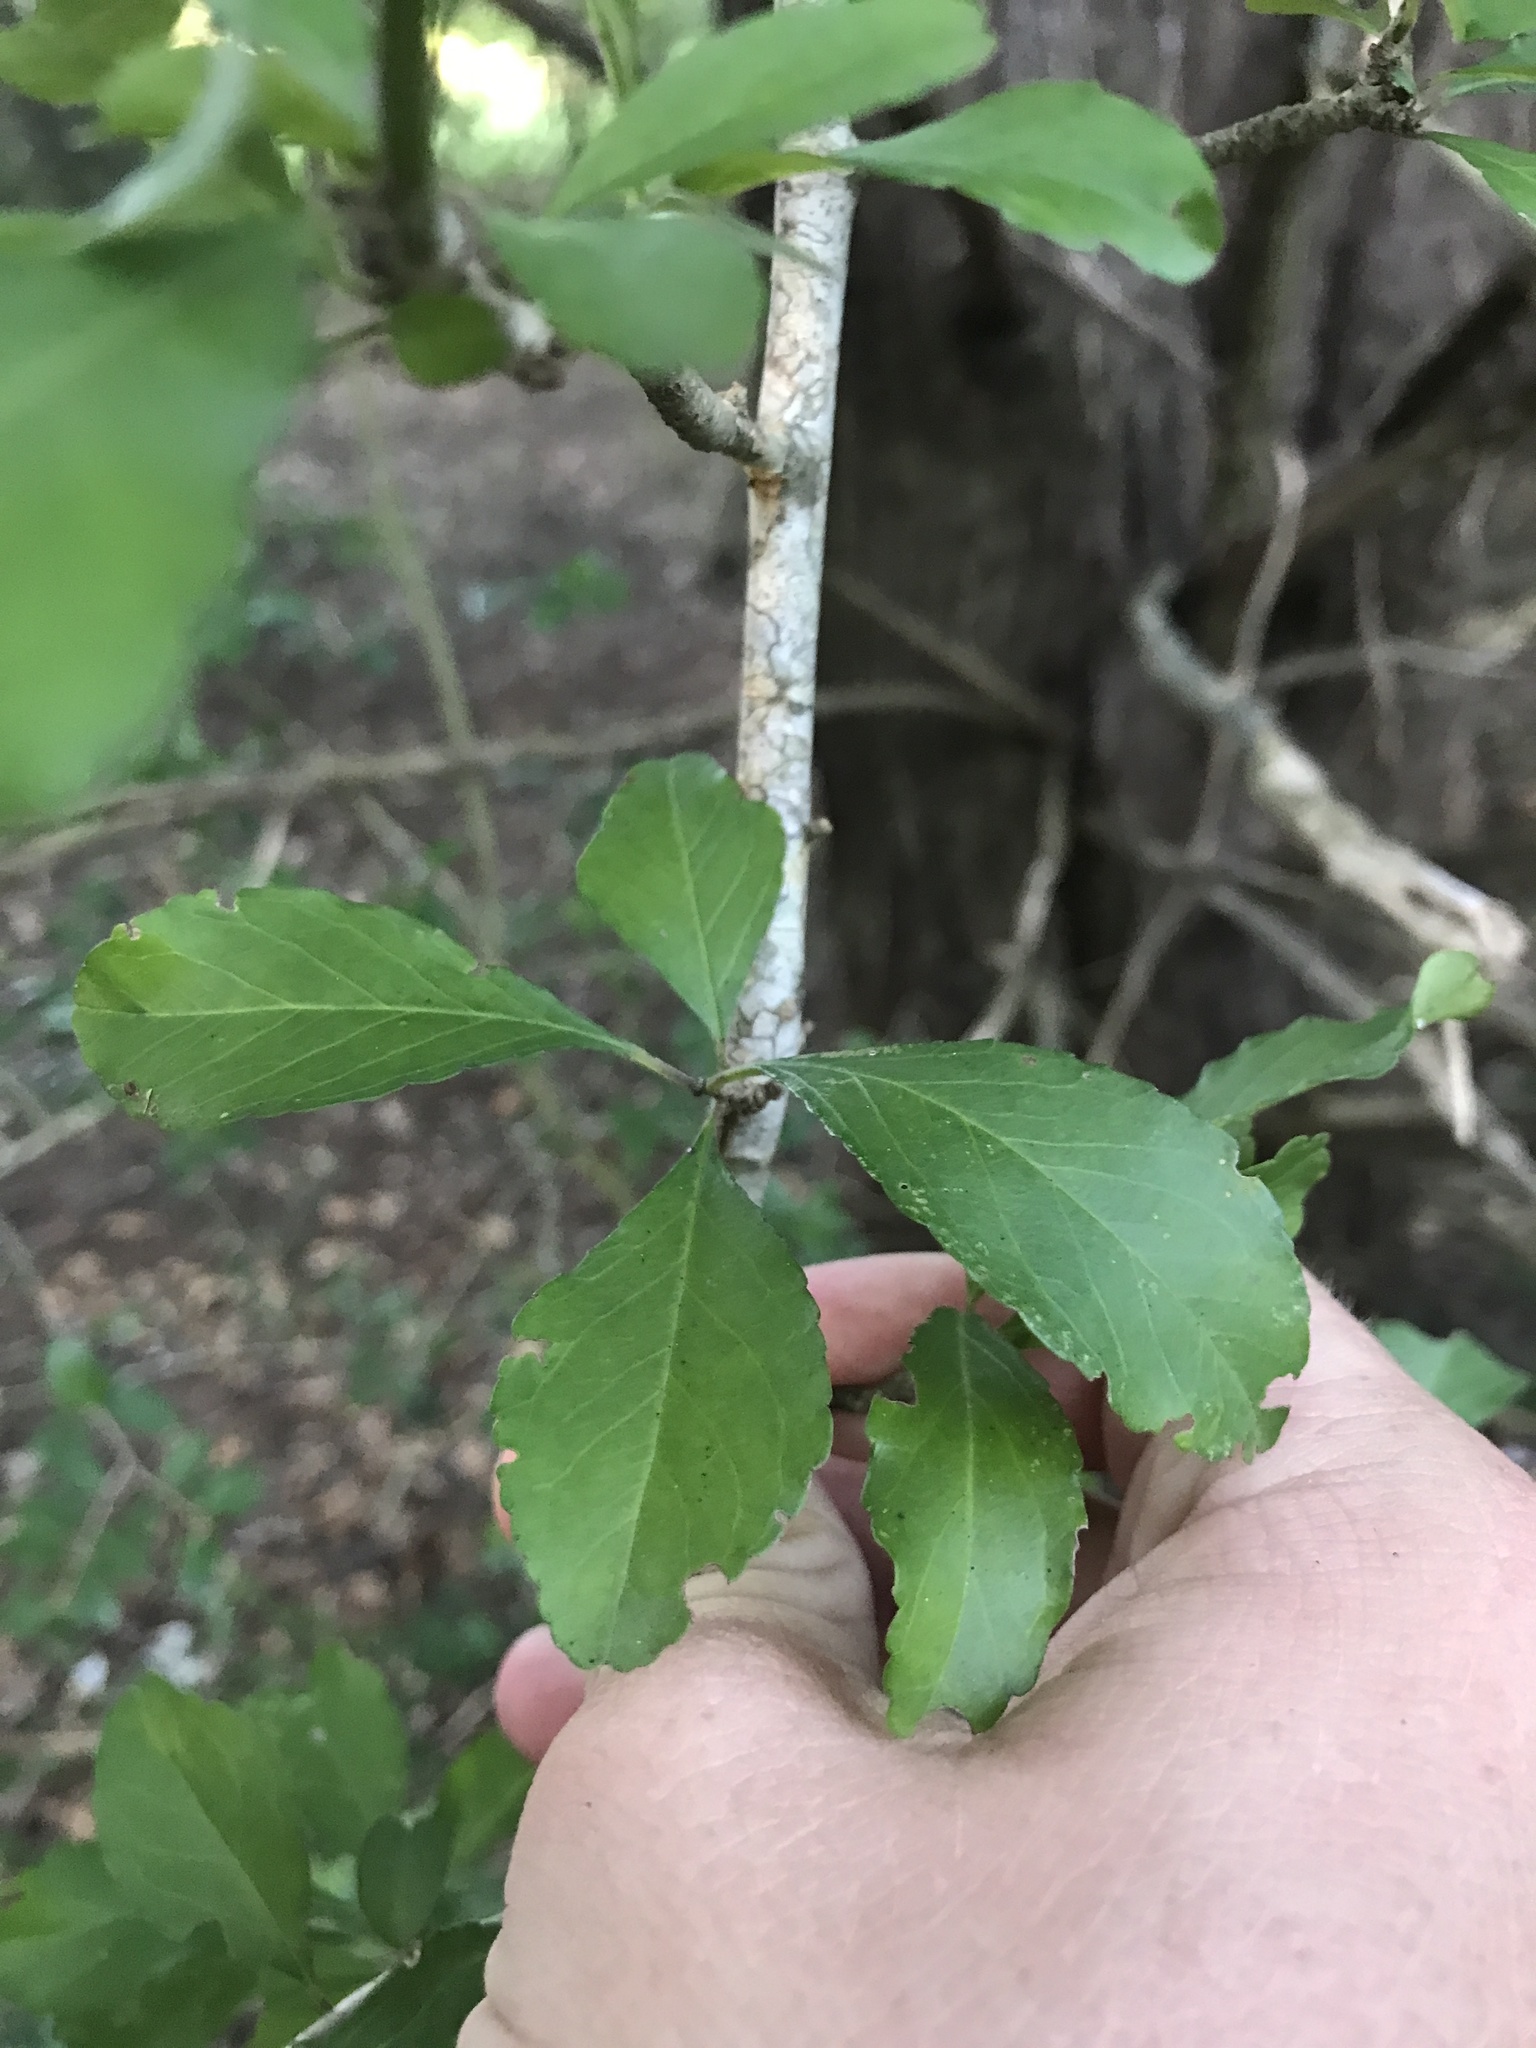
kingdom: Plantae
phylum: Tracheophyta
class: Magnoliopsida
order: Aquifoliales
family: Aquifoliaceae
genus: Ilex
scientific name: Ilex decidua
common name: Possum-haw
